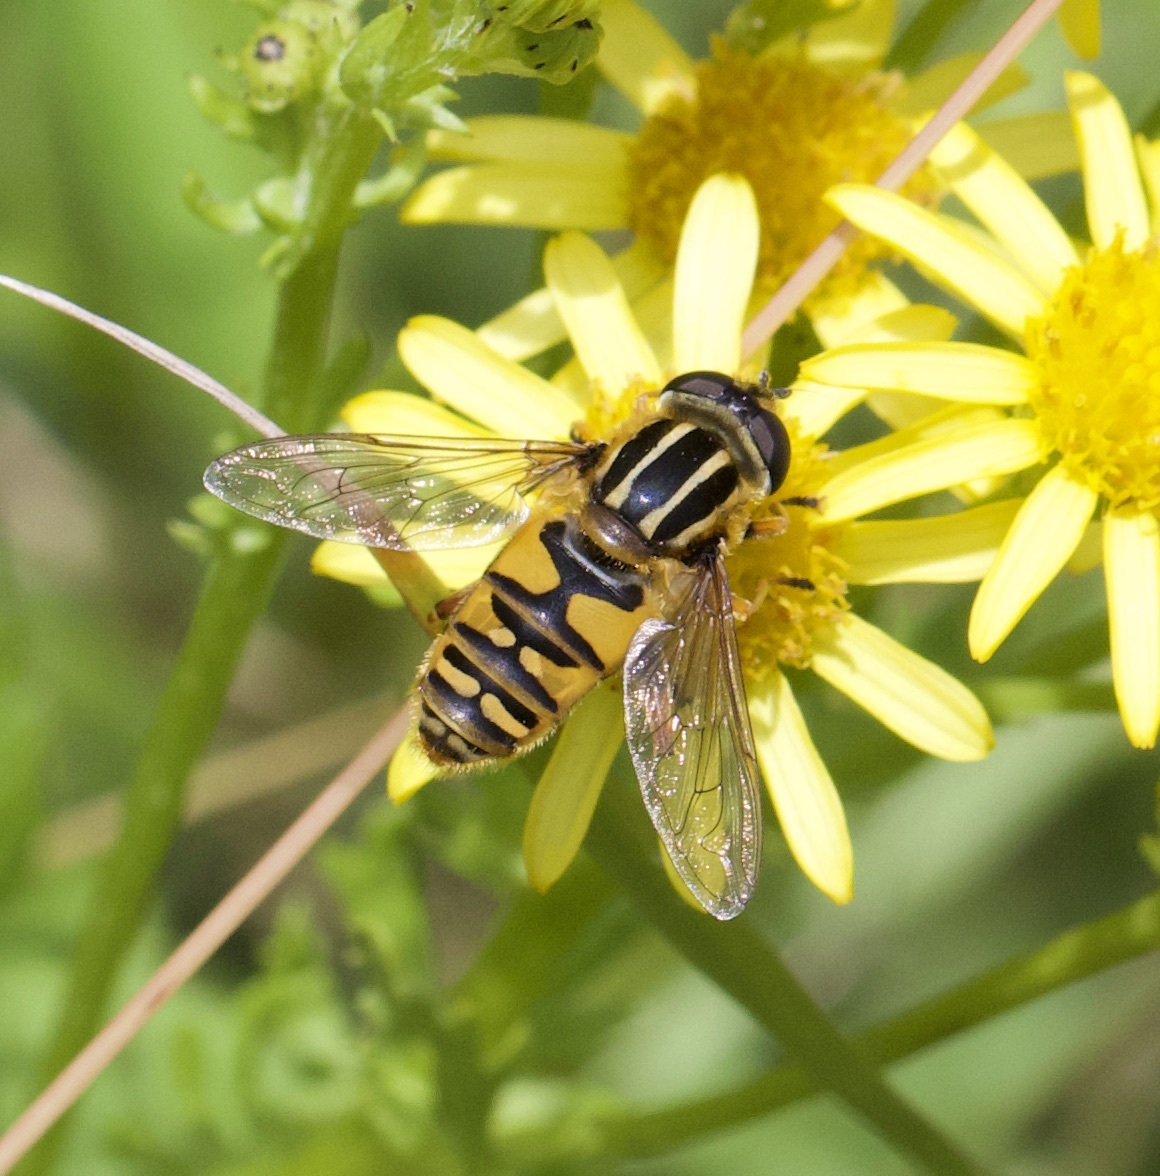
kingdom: Animalia
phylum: Arthropoda
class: Insecta
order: Diptera
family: Syrphidae
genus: Helophilus
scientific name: Helophilus pendulus
